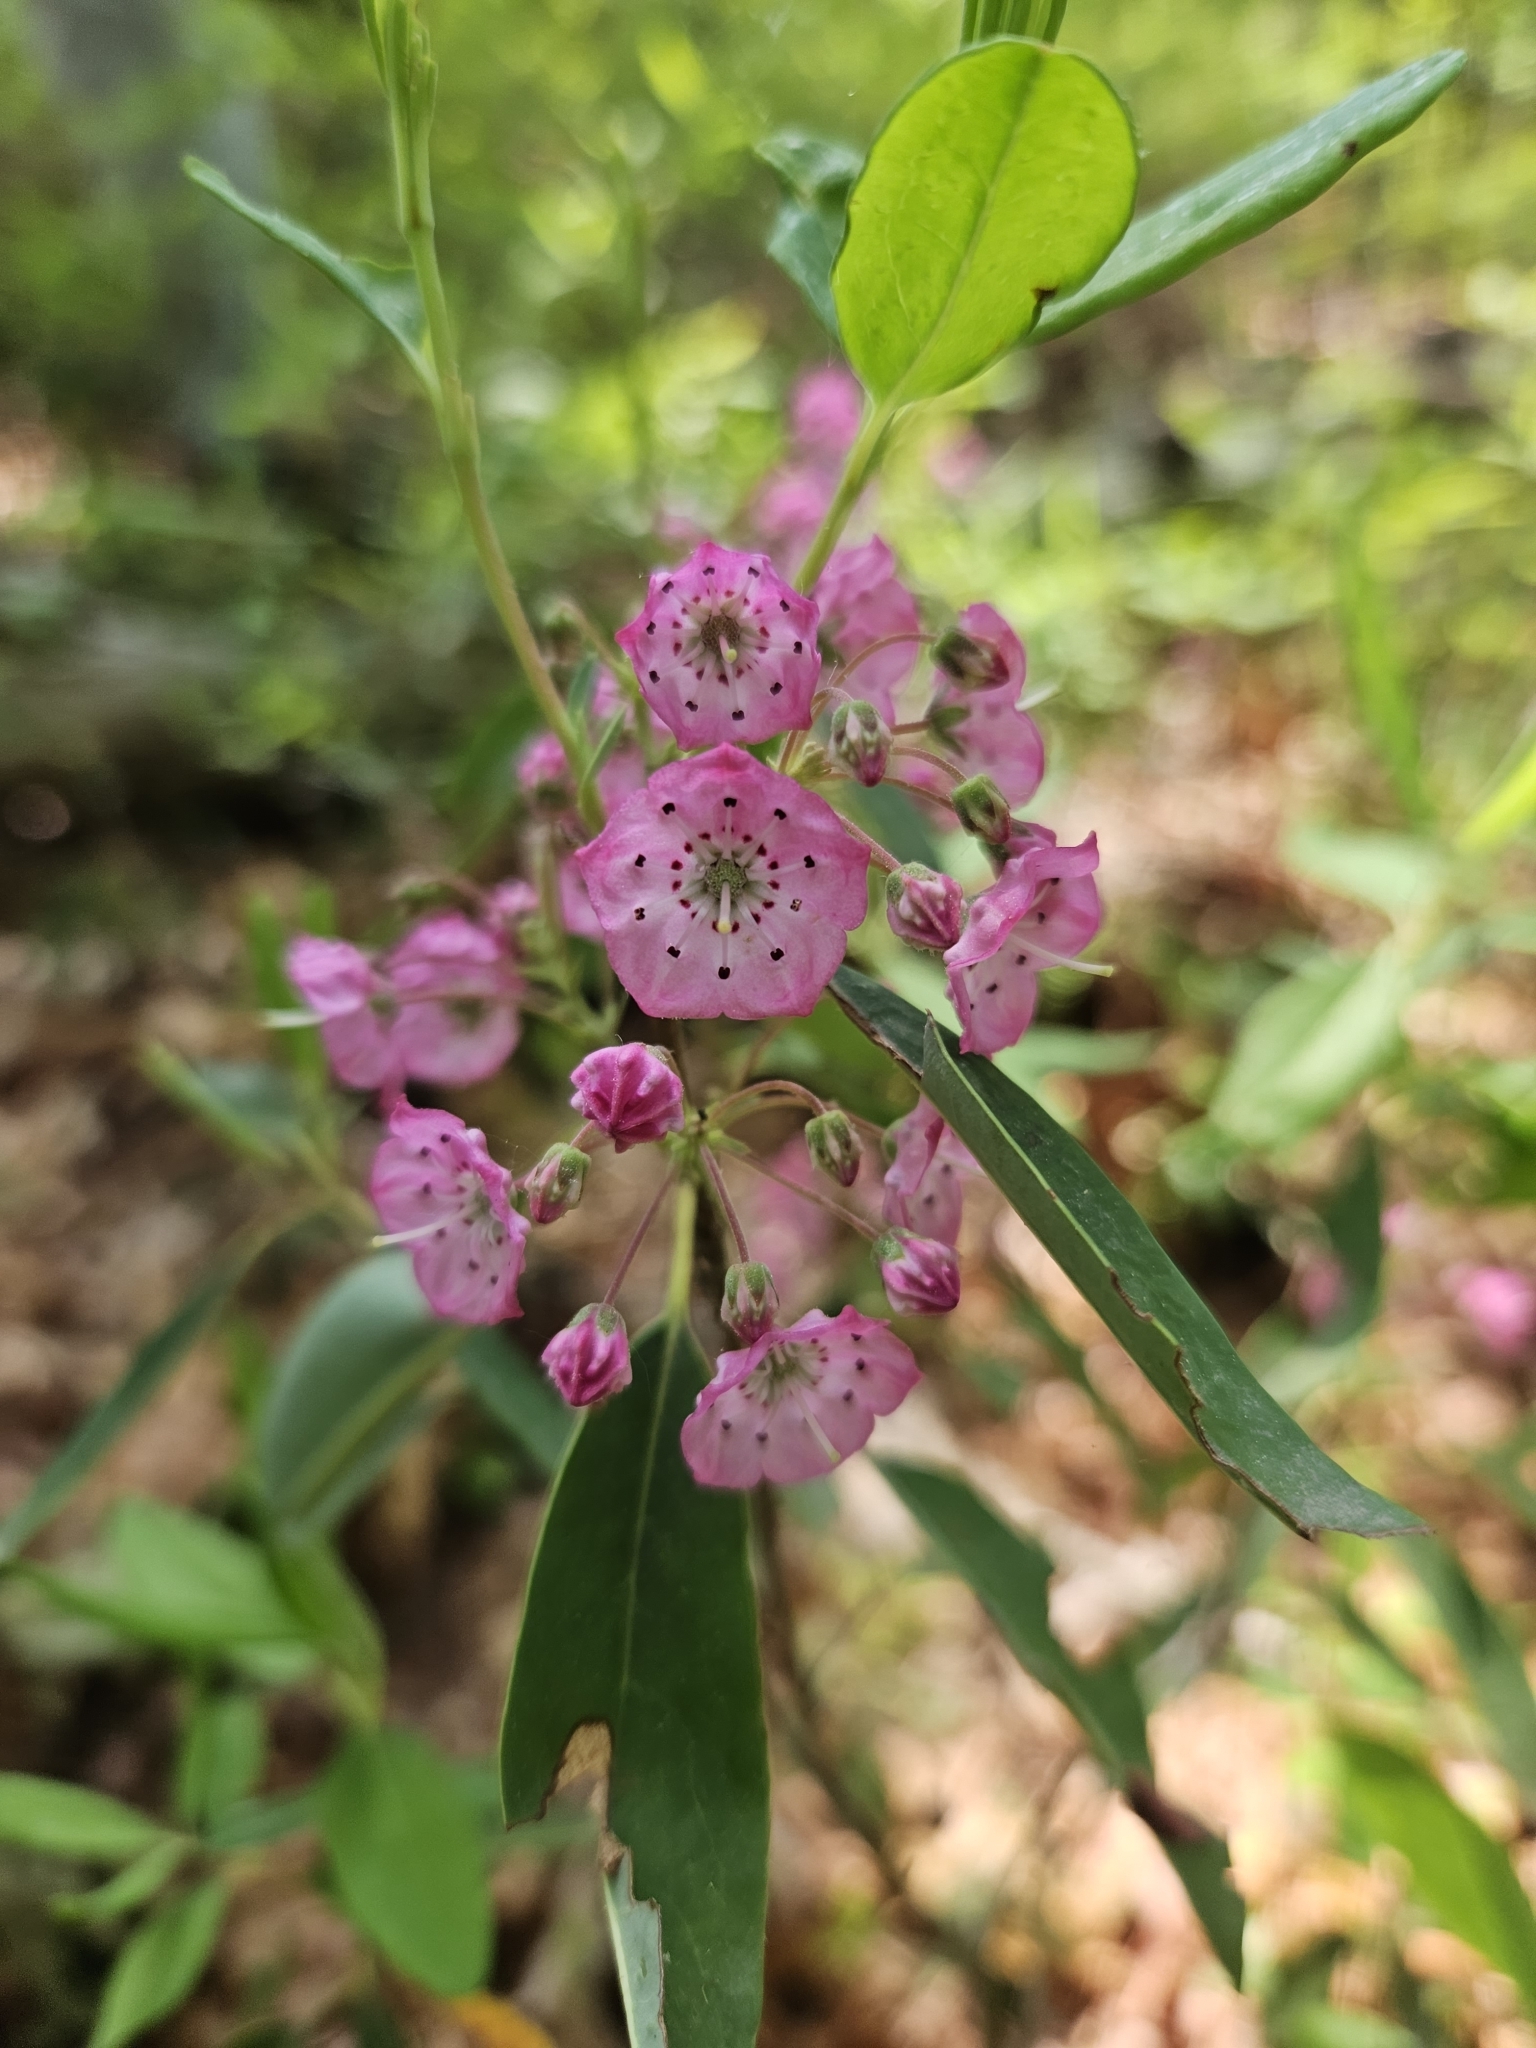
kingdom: Plantae
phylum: Tracheophyta
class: Magnoliopsida
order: Ericales
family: Ericaceae
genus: Kalmia
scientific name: Kalmia angustifolia
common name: Sheep-laurel
